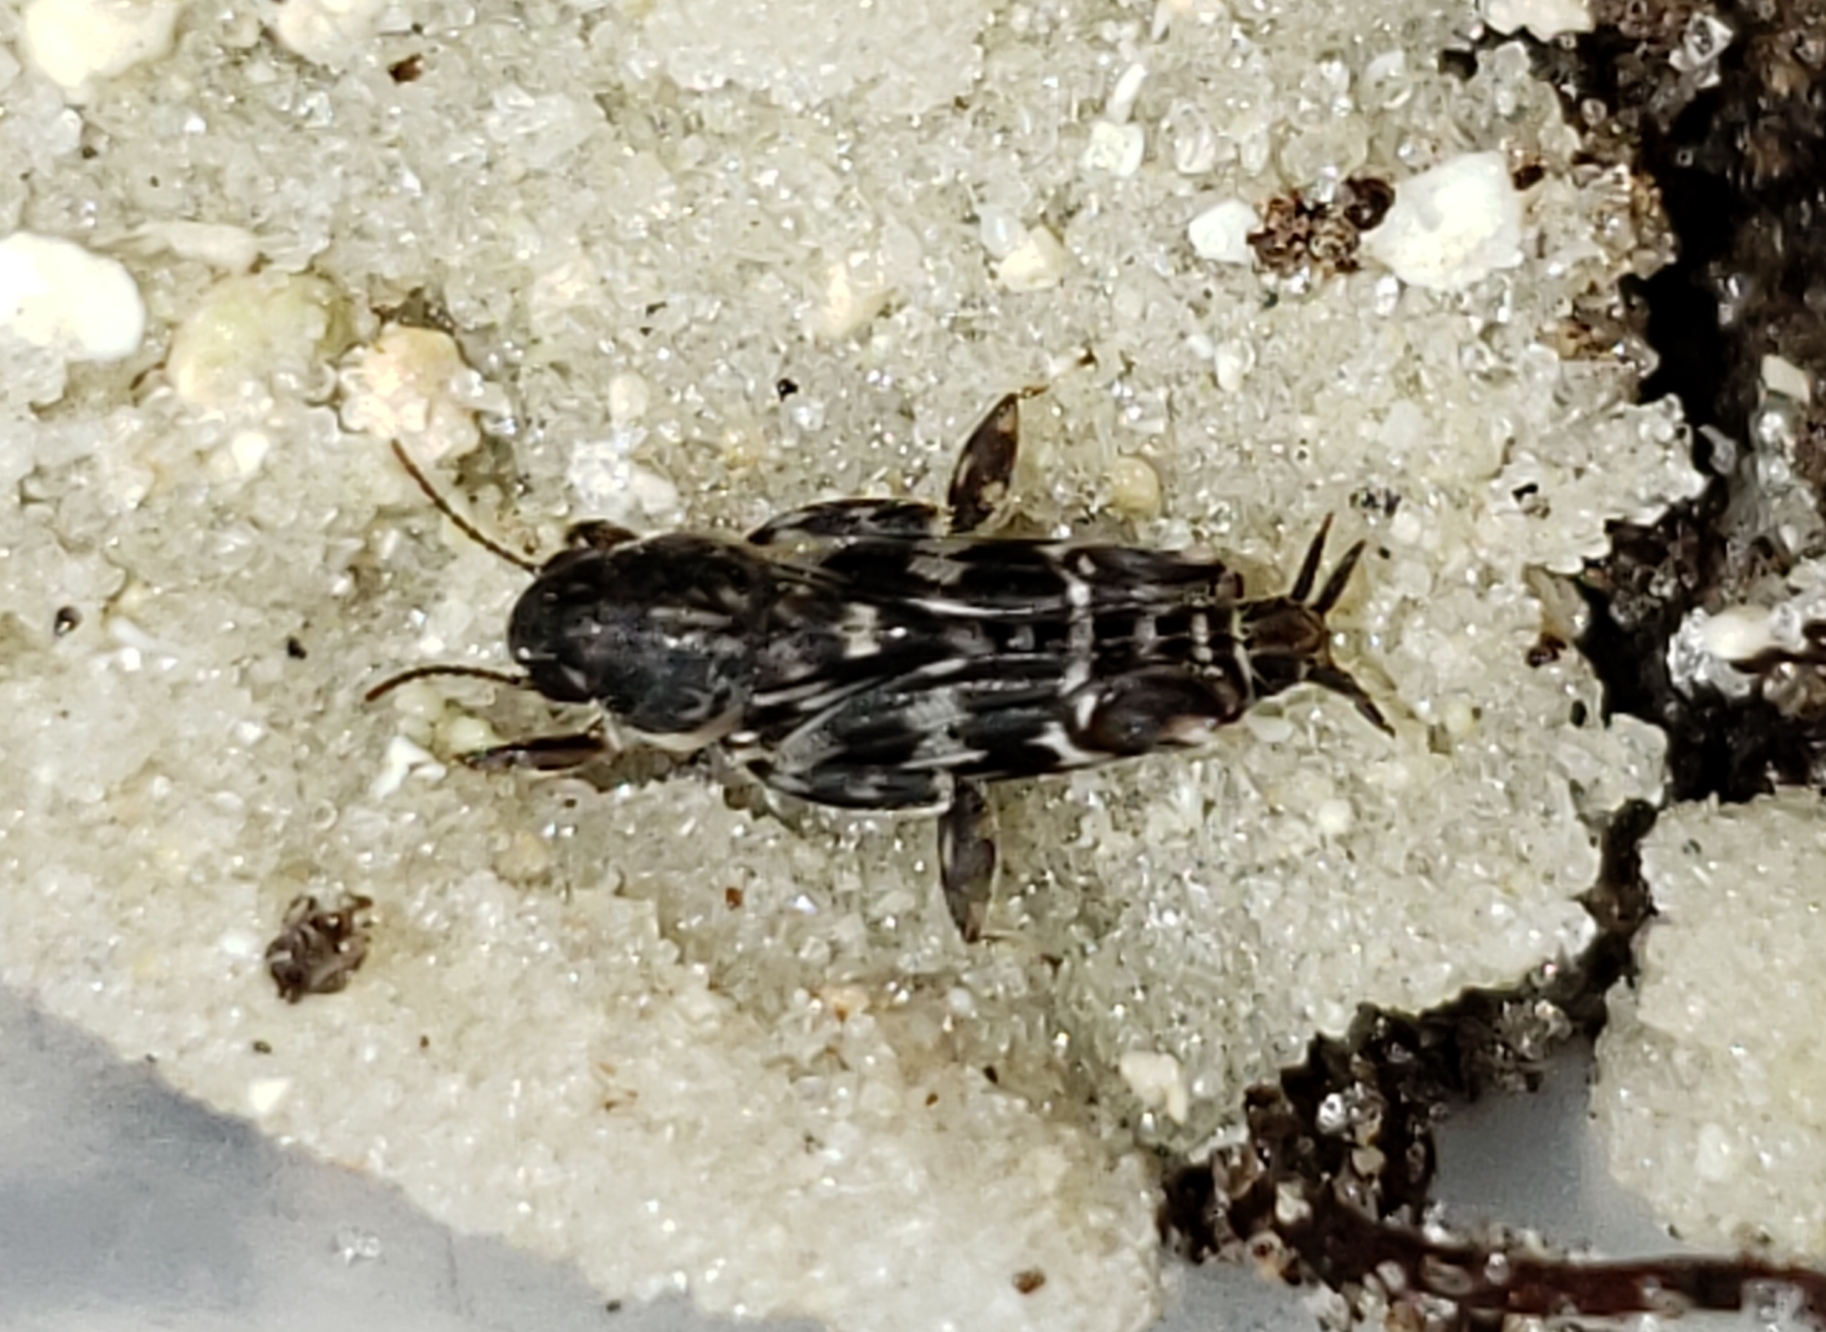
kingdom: Animalia
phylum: Arthropoda
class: Insecta
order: Orthoptera
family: Tridactylidae
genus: Ellipes
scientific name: Ellipes minuta
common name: Minute pygmy locust
